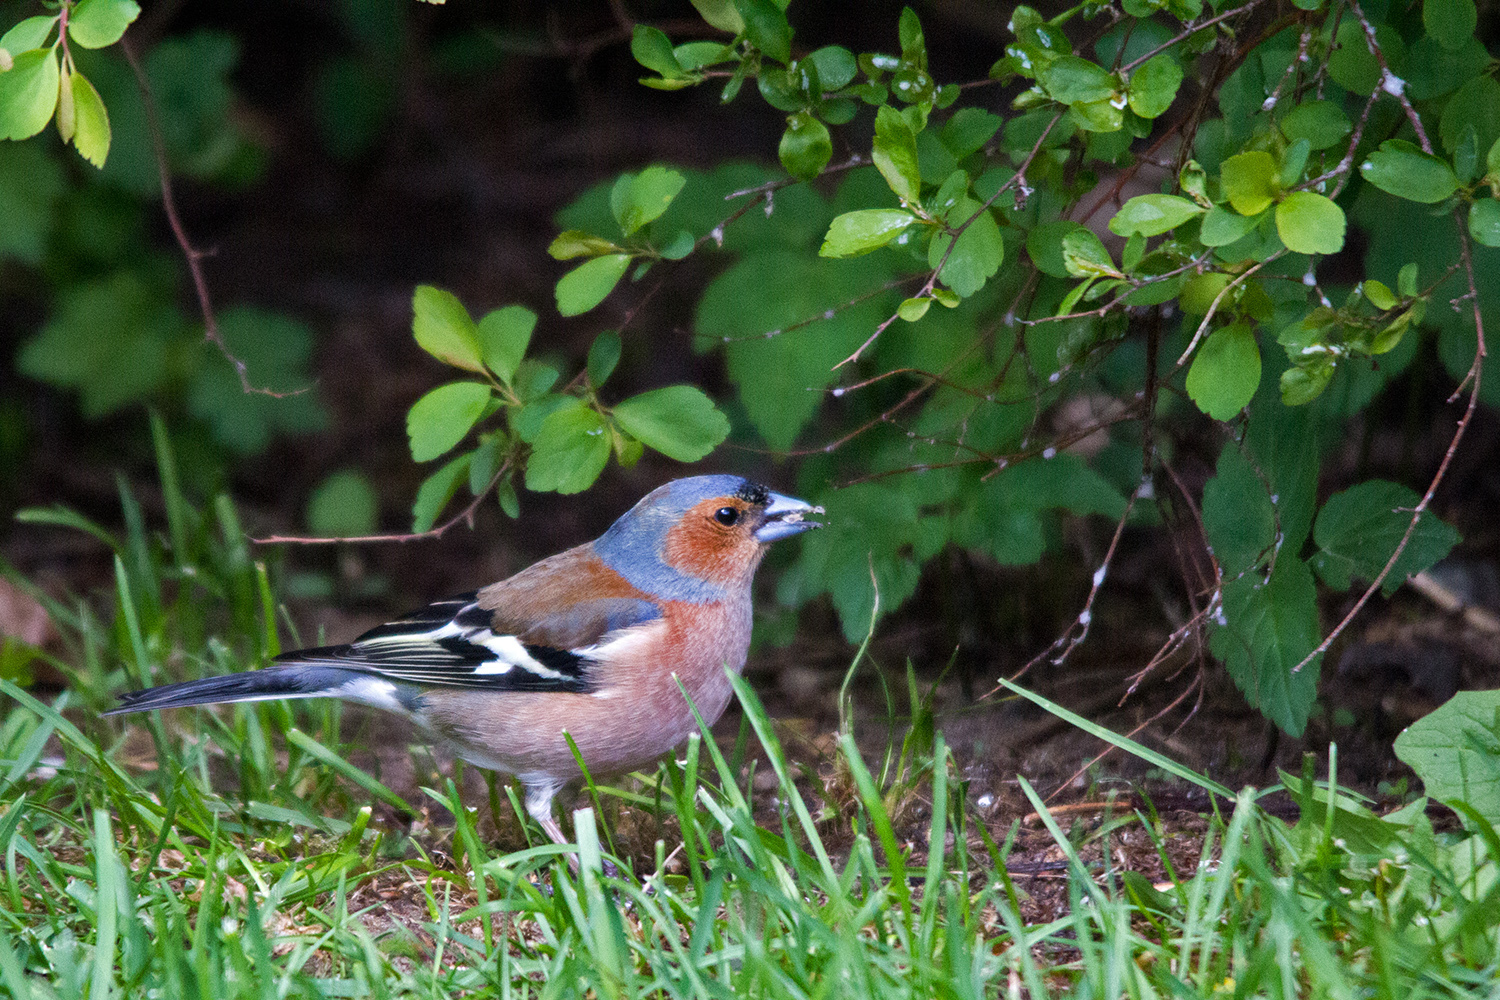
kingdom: Animalia
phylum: Chordata
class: Aves
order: Passeriformes
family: Fringillidae
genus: Fringilla
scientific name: Fringilla coelebs
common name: Common chaffinch
